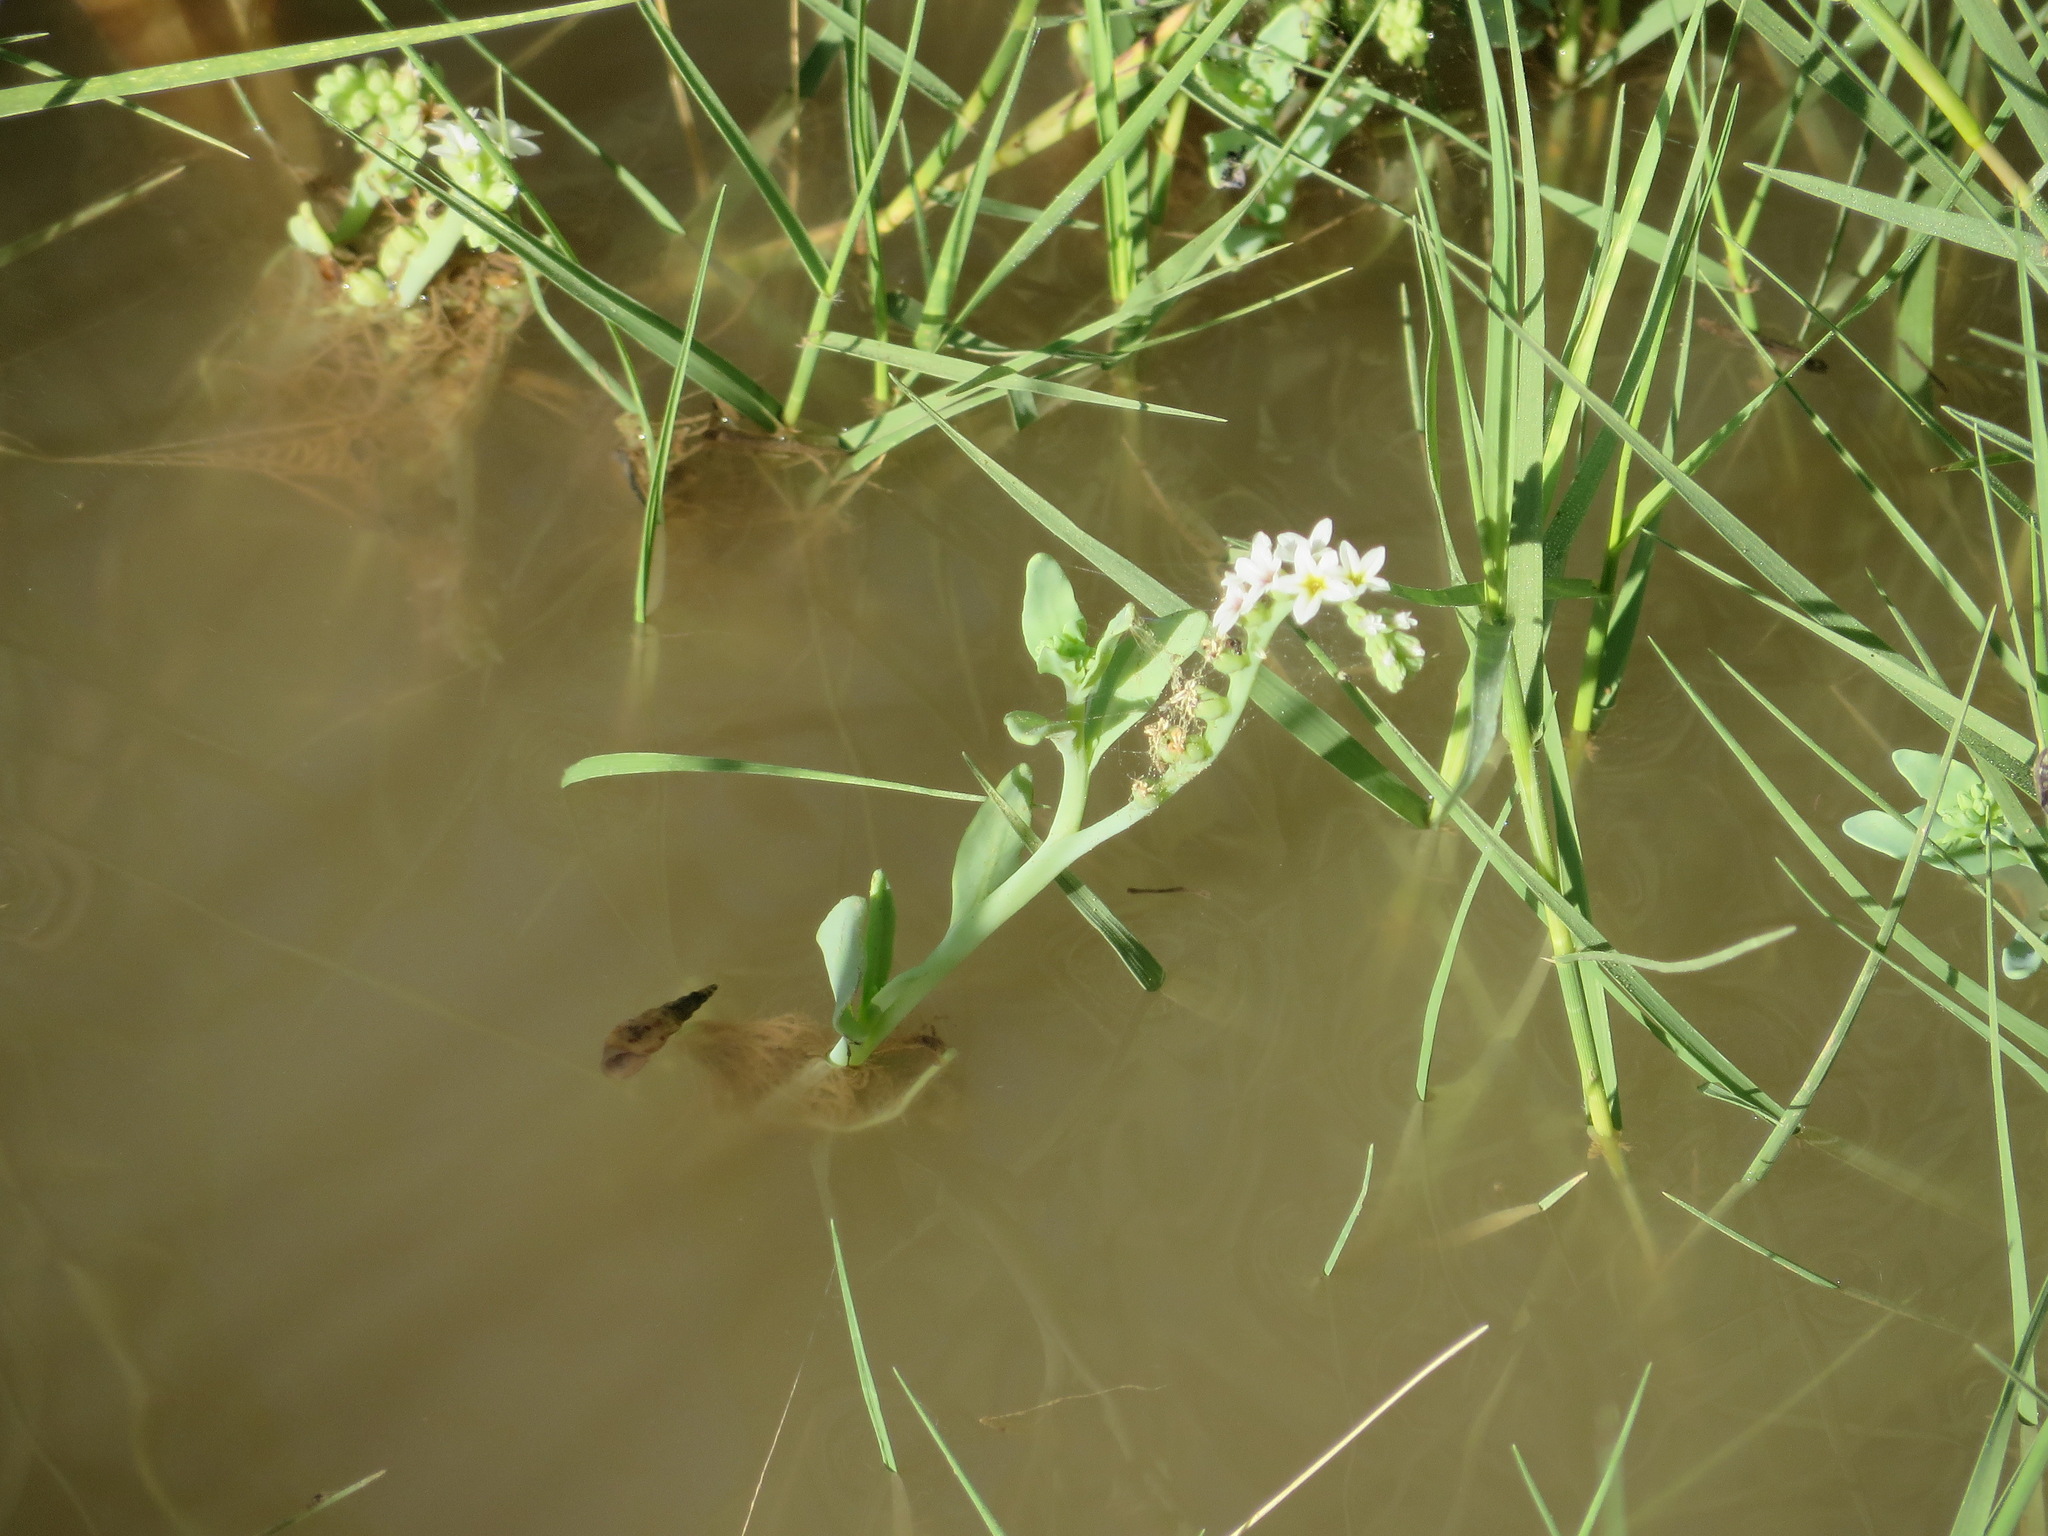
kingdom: Plantae
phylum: Tracheophyta
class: Magnoliopsida
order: Boraginales
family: Heliotropiaceae
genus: Heliotropium
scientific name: Heliotropium curassavicum
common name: Seaside heliotrope
